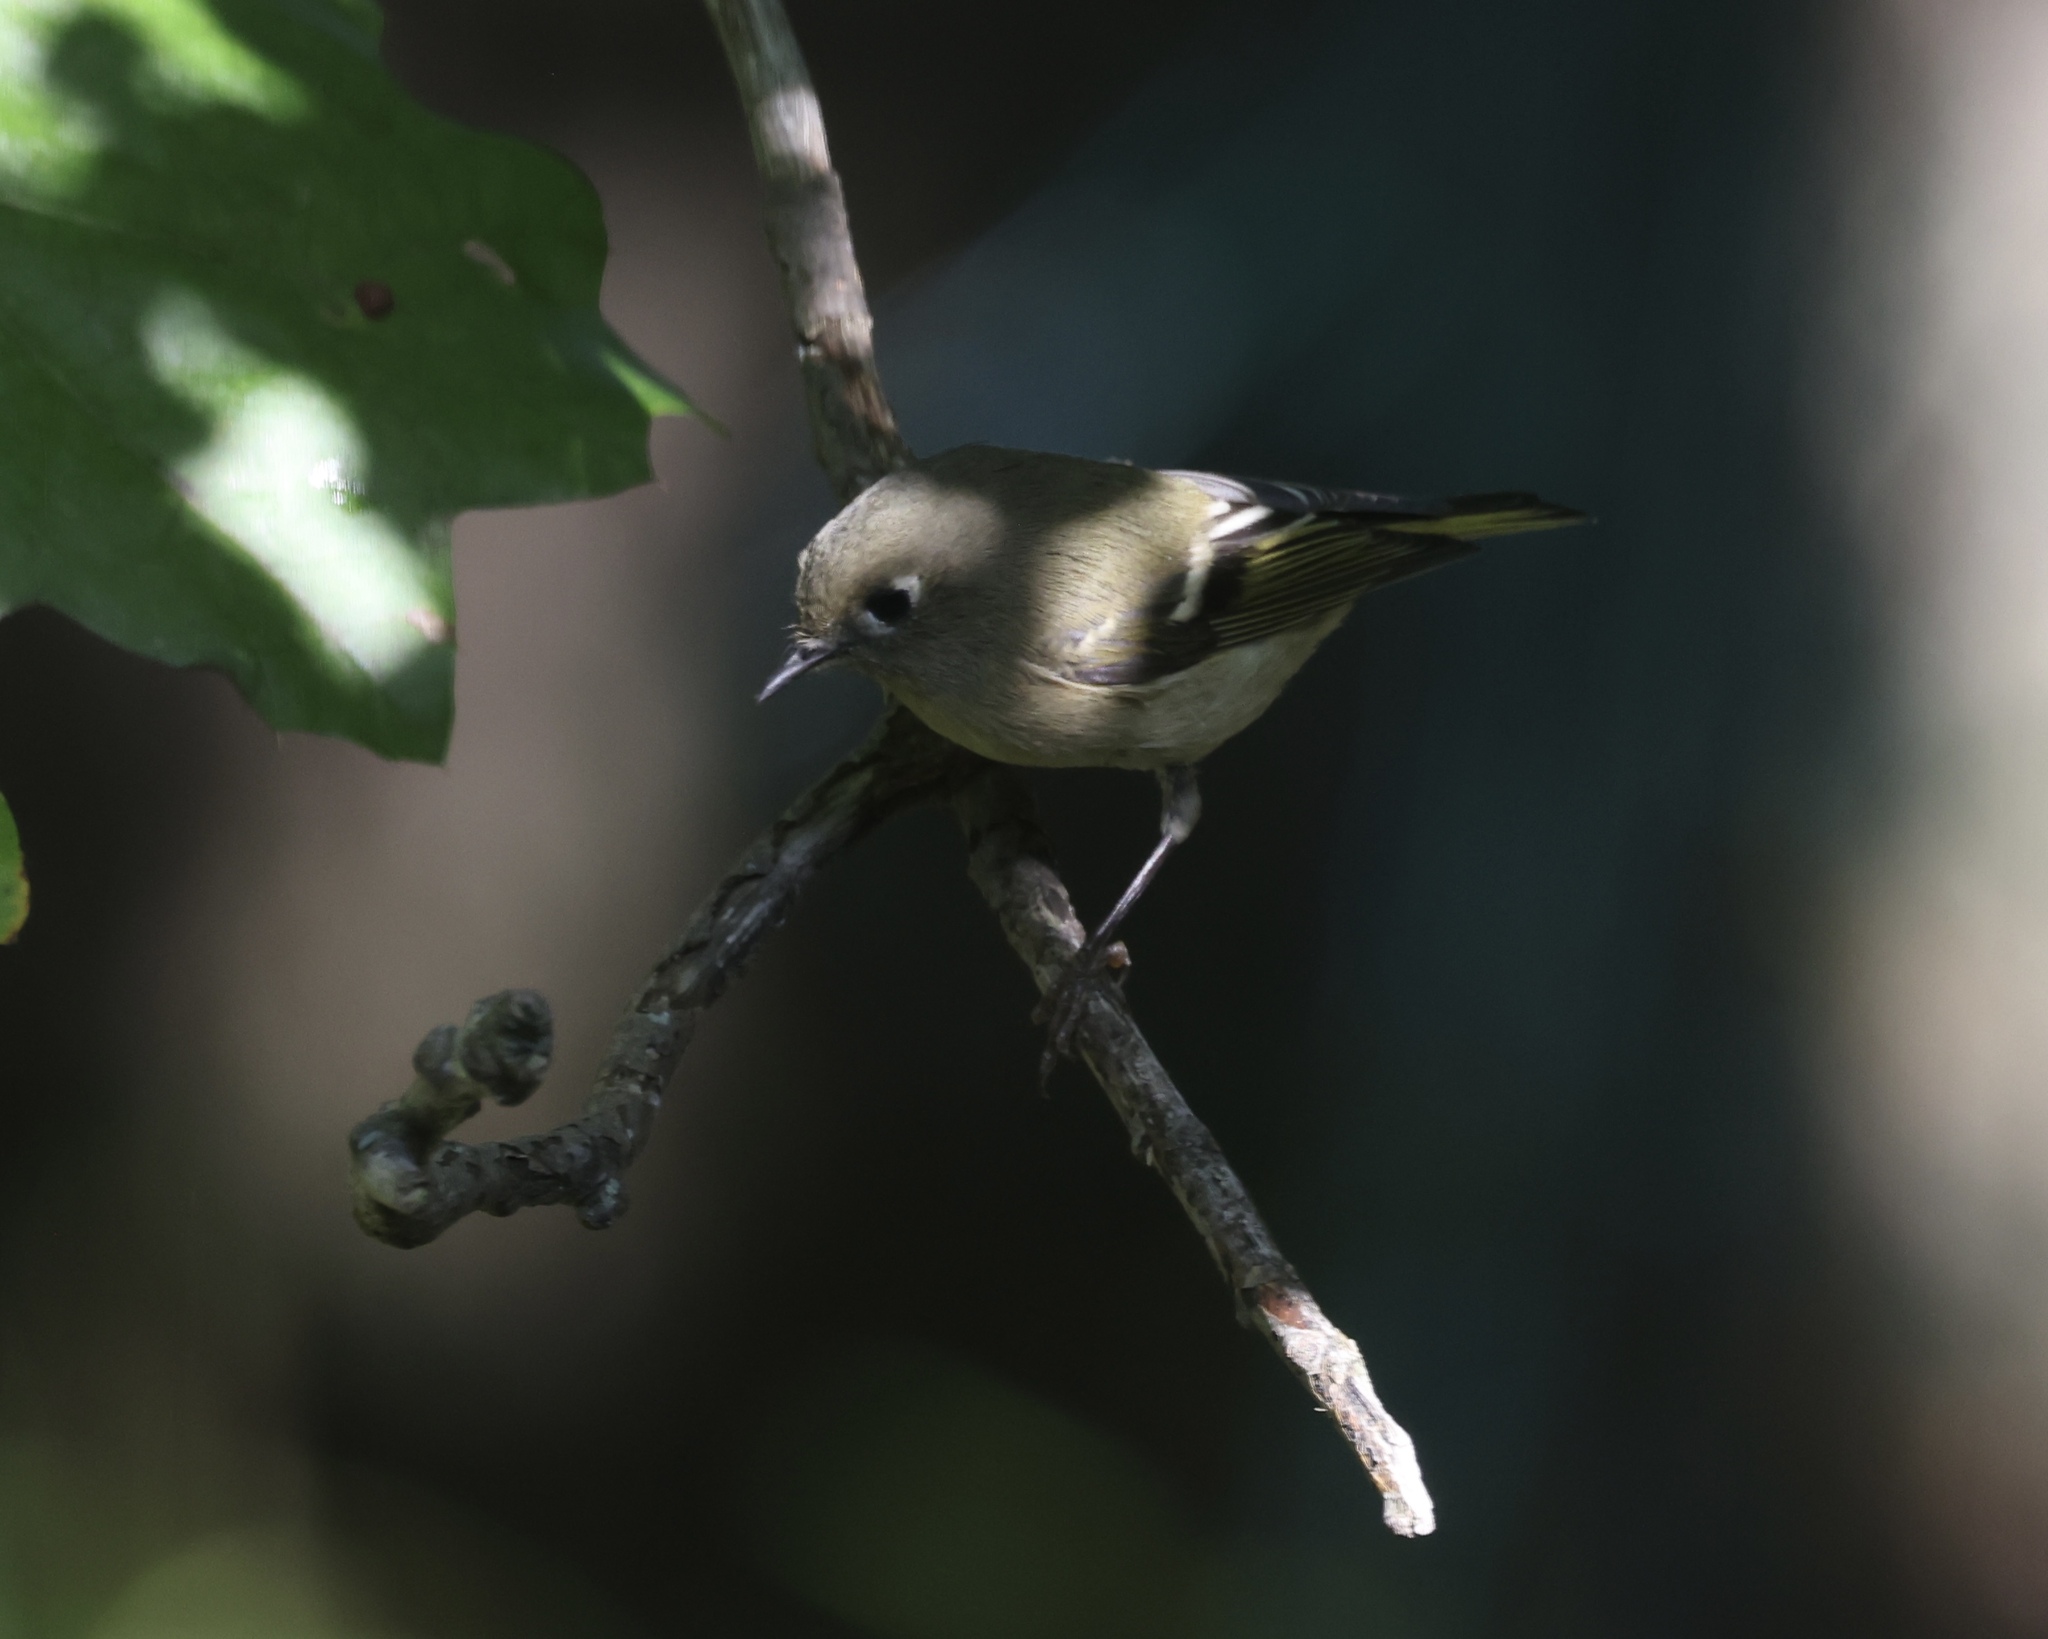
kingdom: Animalia
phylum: Chordata
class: Aves
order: Passeriformes
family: Regulidae
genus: Regulus
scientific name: Regulus calendula
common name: Ruby-crowned kinglet
